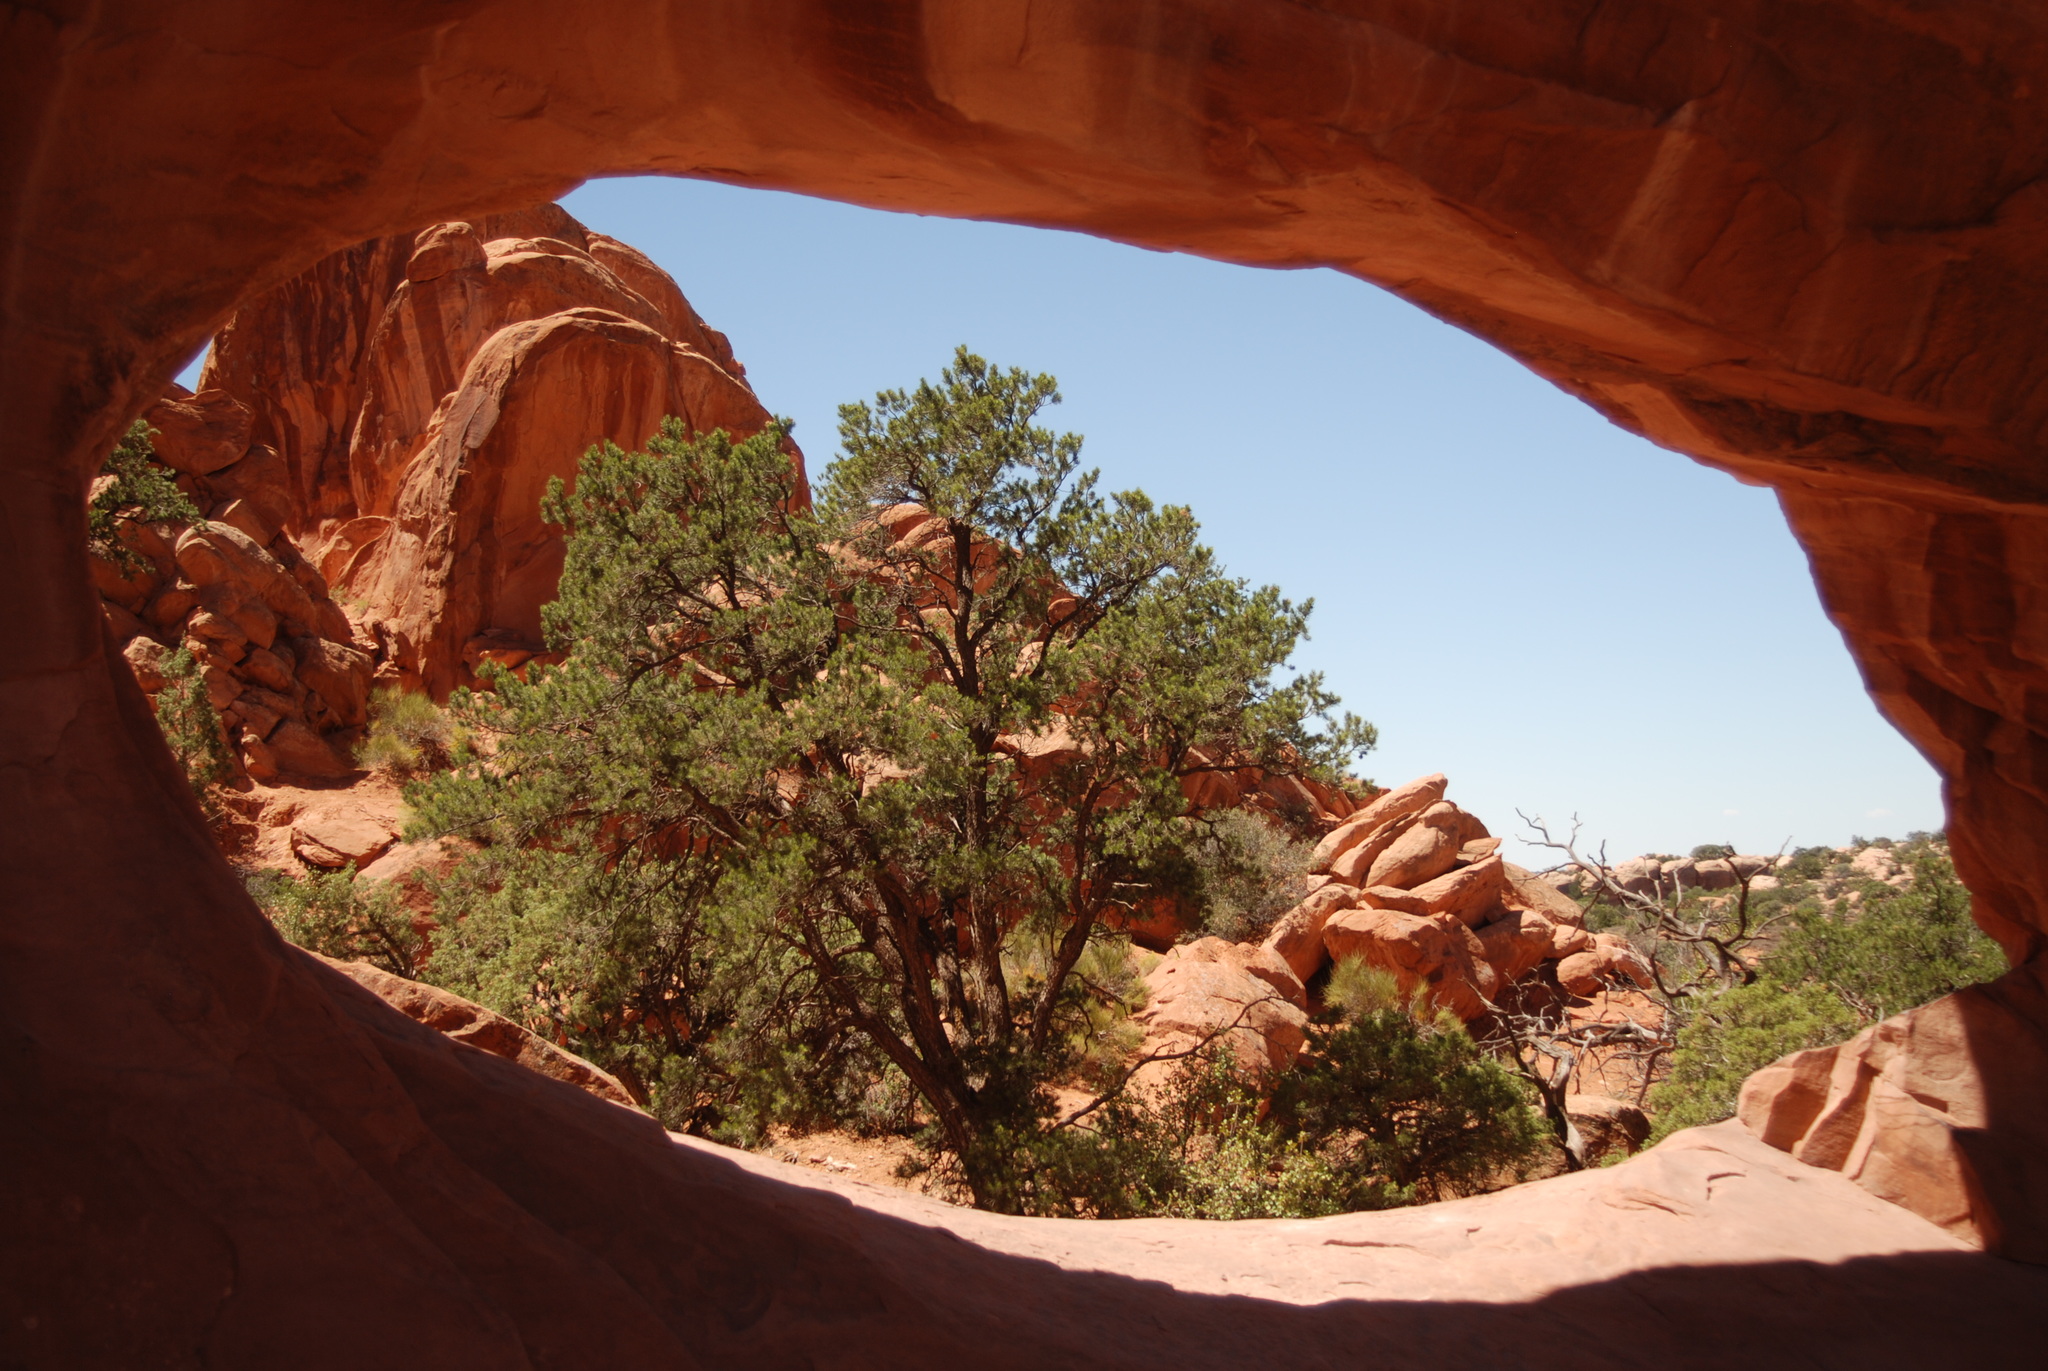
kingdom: Plantae
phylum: Tracheophyta
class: Pinopsida
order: Pinales
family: Pinaceae
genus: Pinus
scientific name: Pinus edulis
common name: Colorado pinyon
